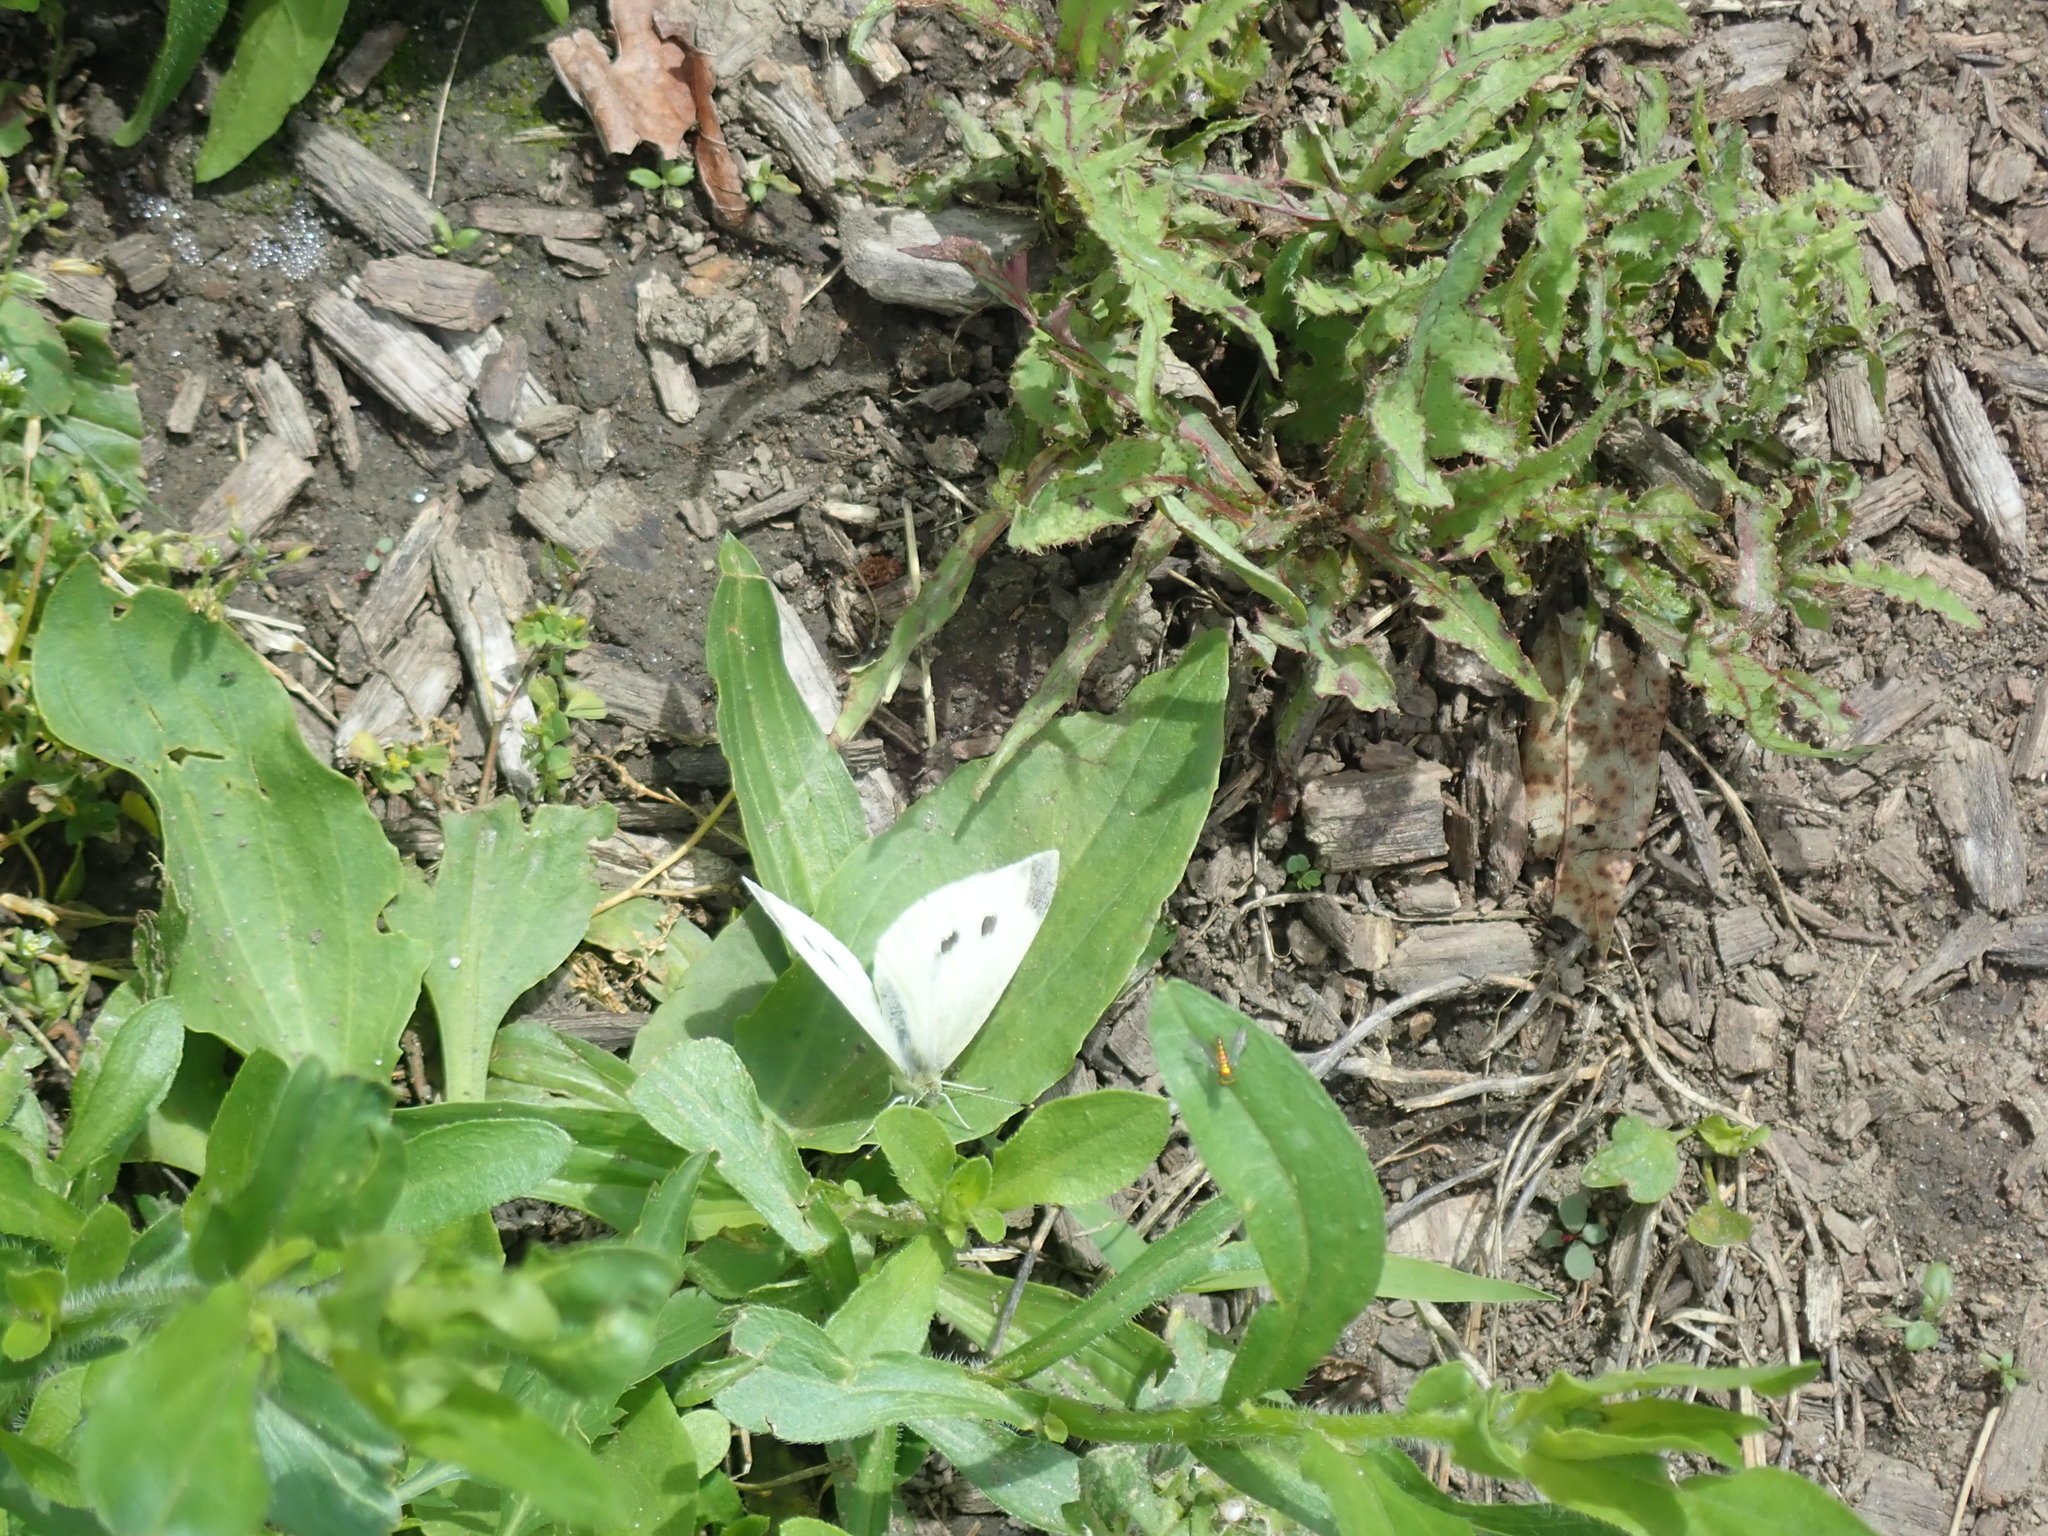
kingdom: Animalia
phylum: Arthropoda
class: Insecta
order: Lepidoptera
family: Pieridae
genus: Pieris
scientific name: Pieris rapae
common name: Small white
